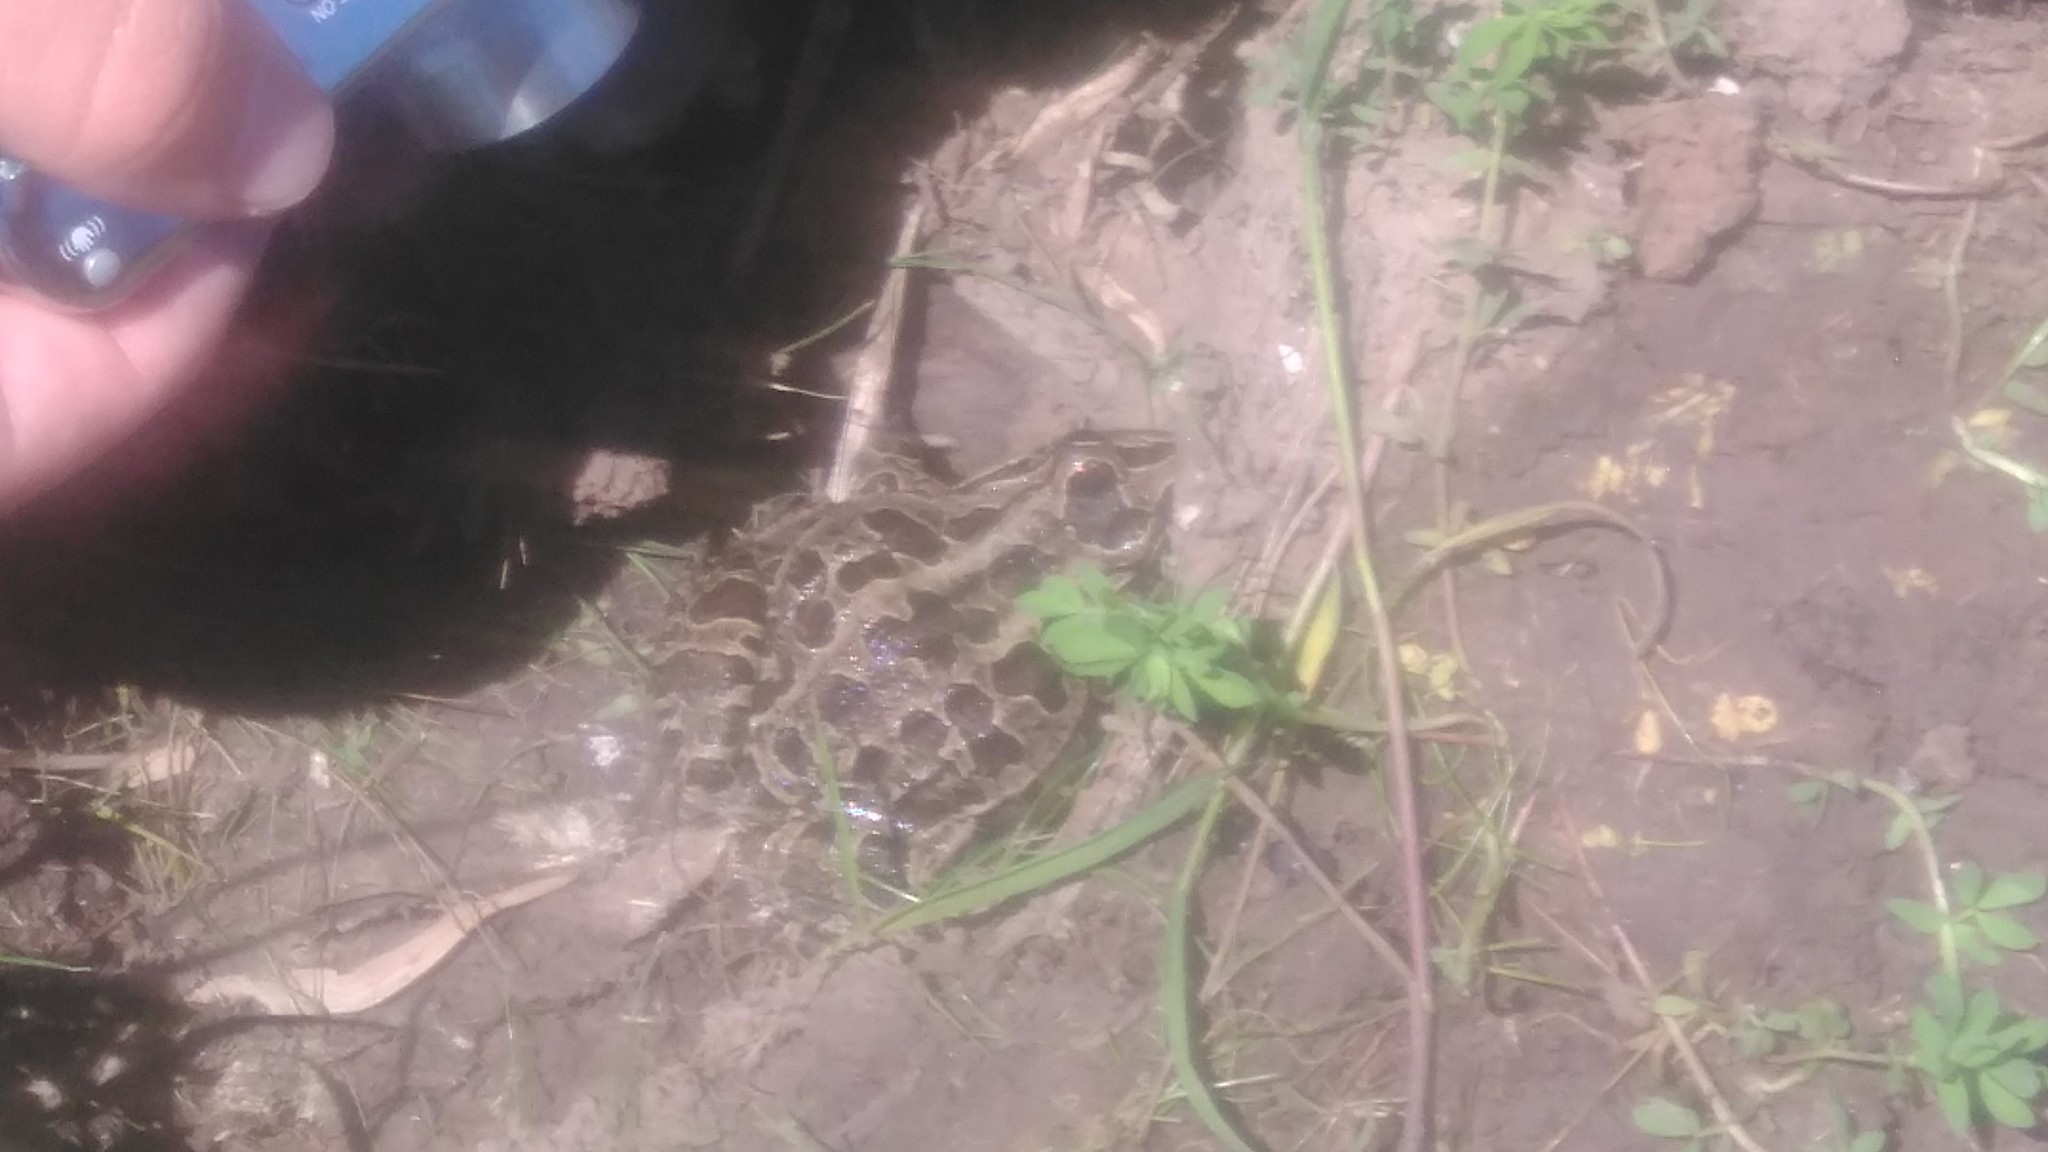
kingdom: Animalia
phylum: Chordata
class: Amphibia
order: Anura
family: Leptodactylidae
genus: Leptodactylus
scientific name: Leptodactylus luctator
